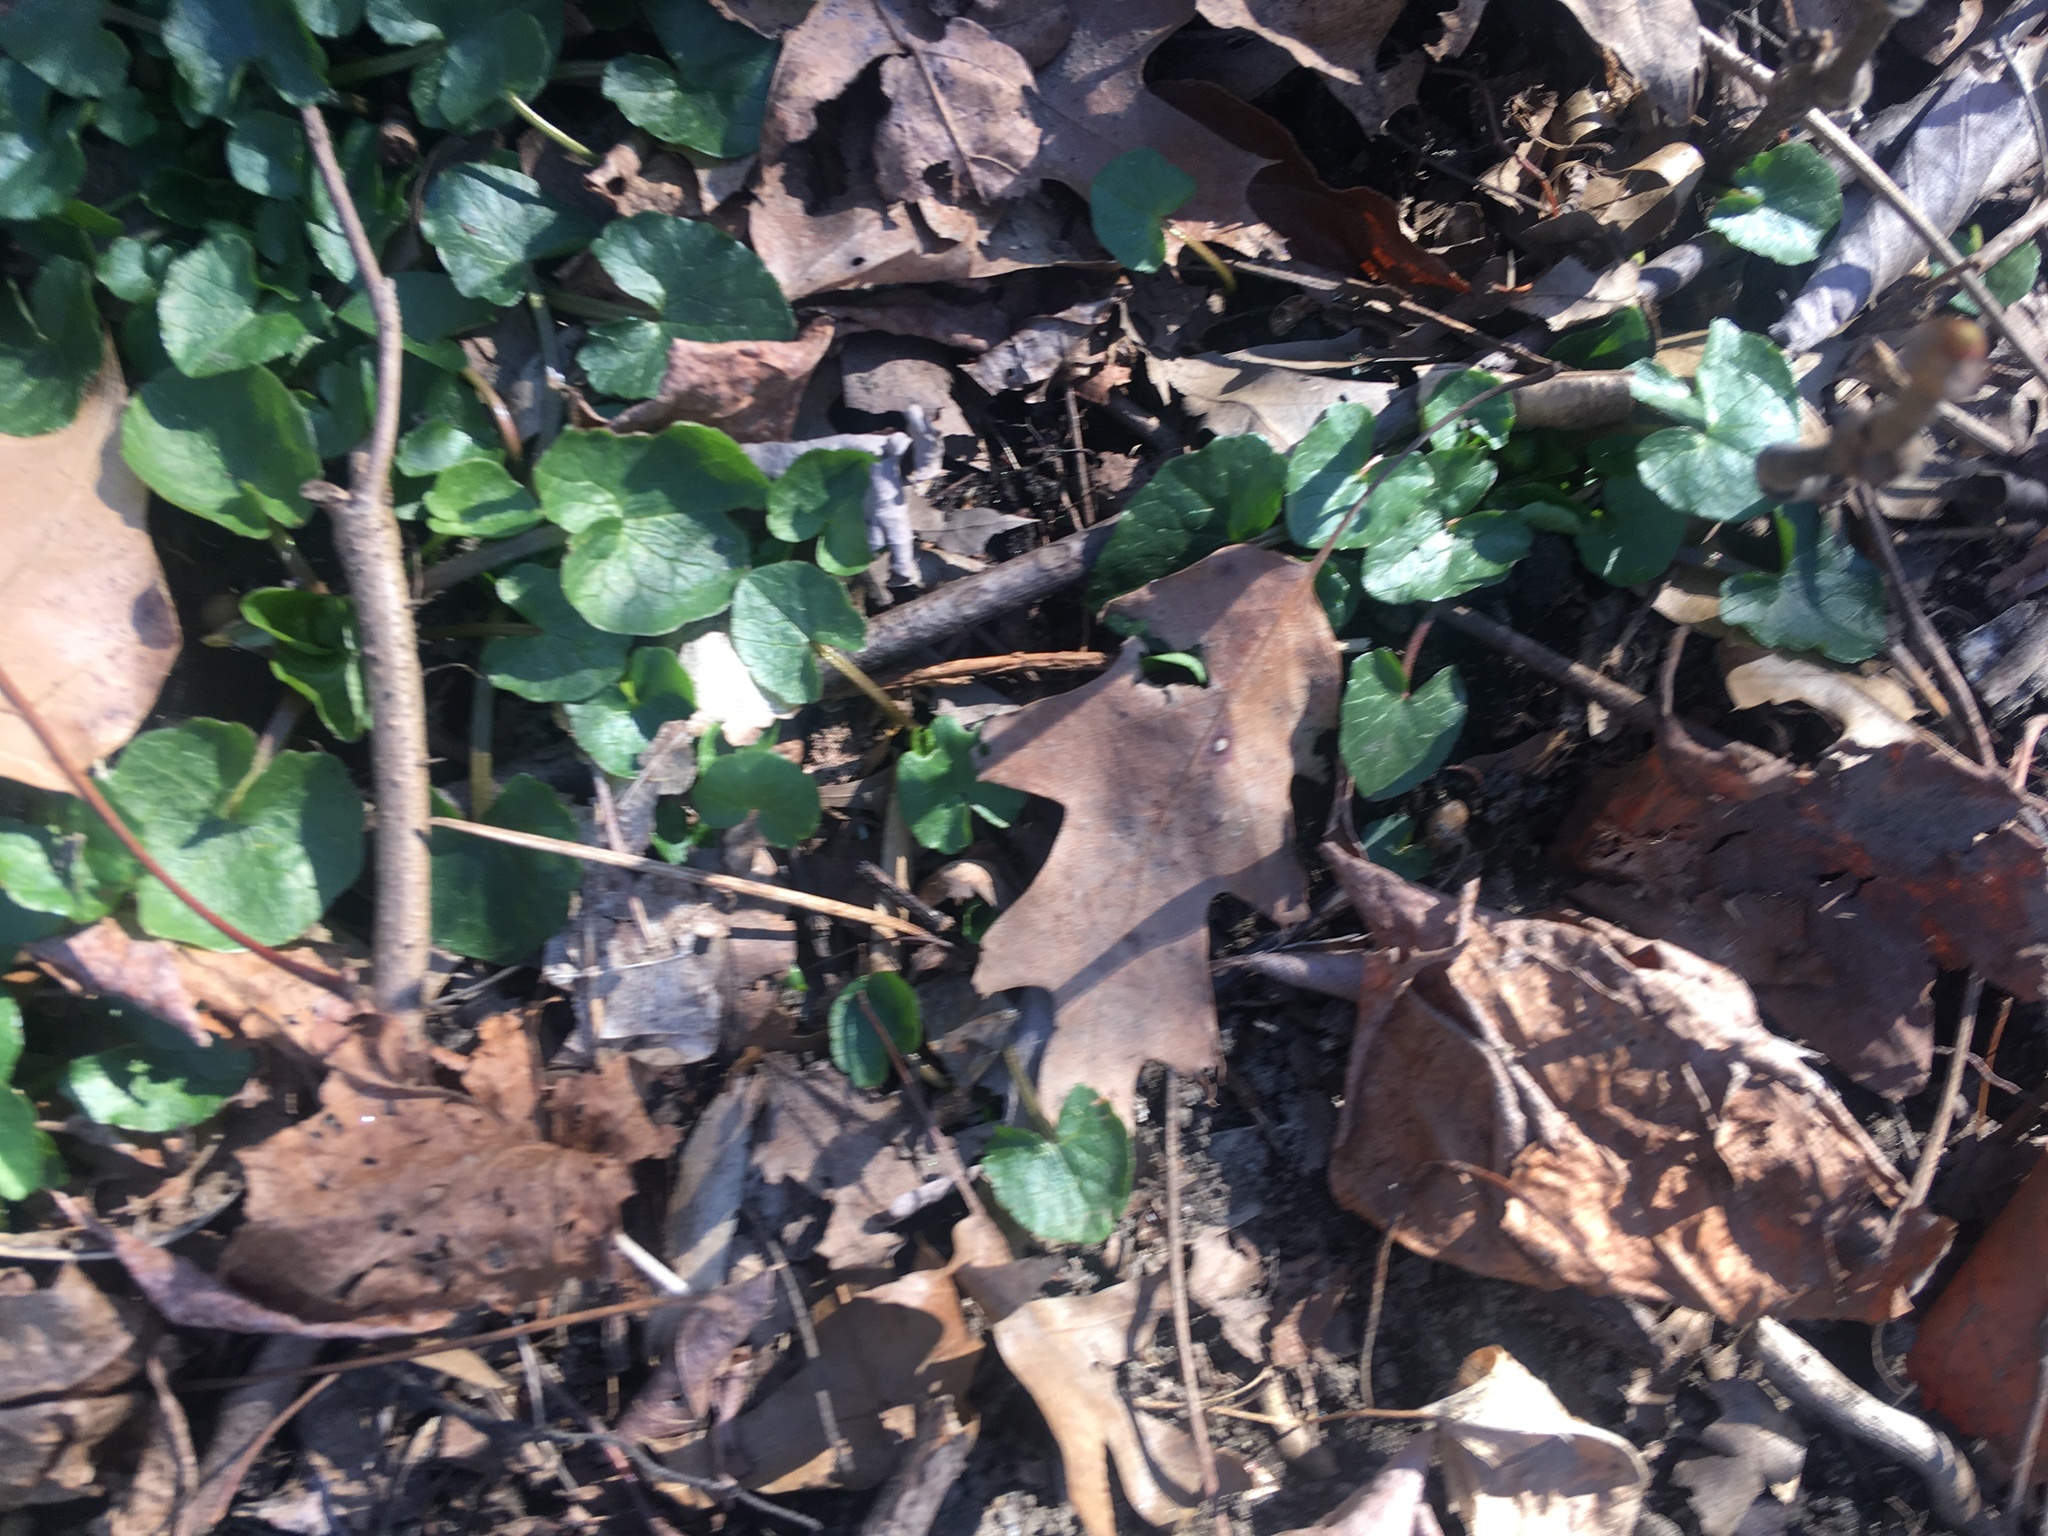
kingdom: Plantae
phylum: Tracheophyta
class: Magnoliopsida
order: Ranunculales
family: Ranunculaceae
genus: Ficaria
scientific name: Ficaria verna
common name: Lesser celandine
